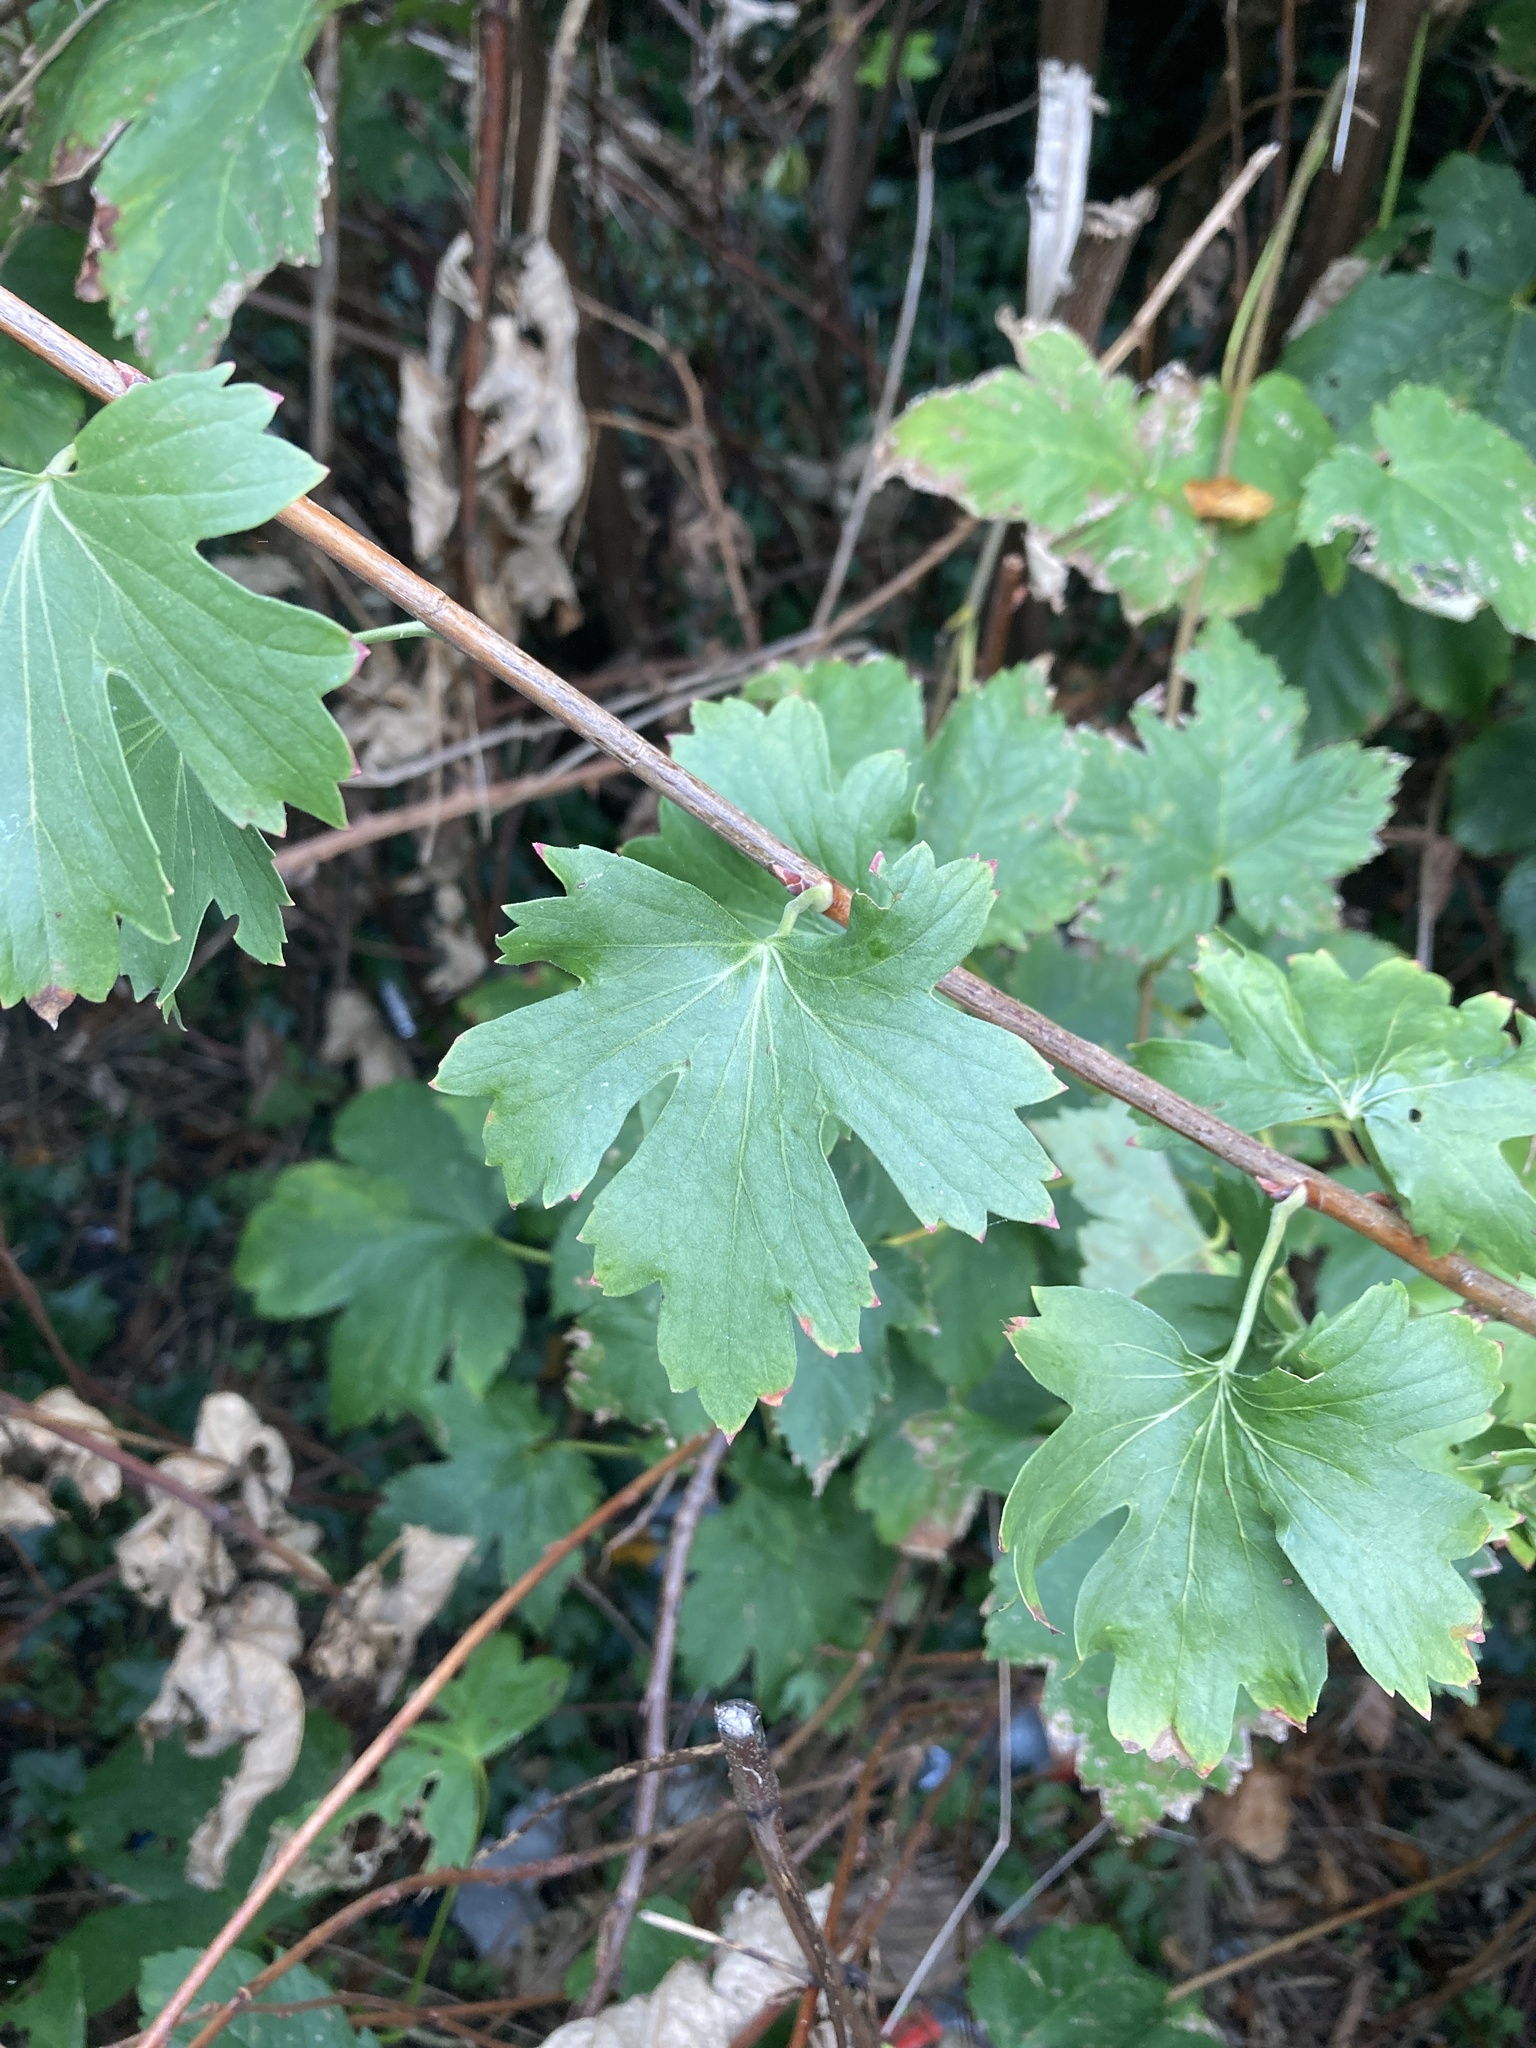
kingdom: Plantae
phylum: Tracheophyta
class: Magnoliopsida
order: Saxifragales
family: Grossulariaceae
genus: Ribes
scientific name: Ribes aureum
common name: Golden currant
